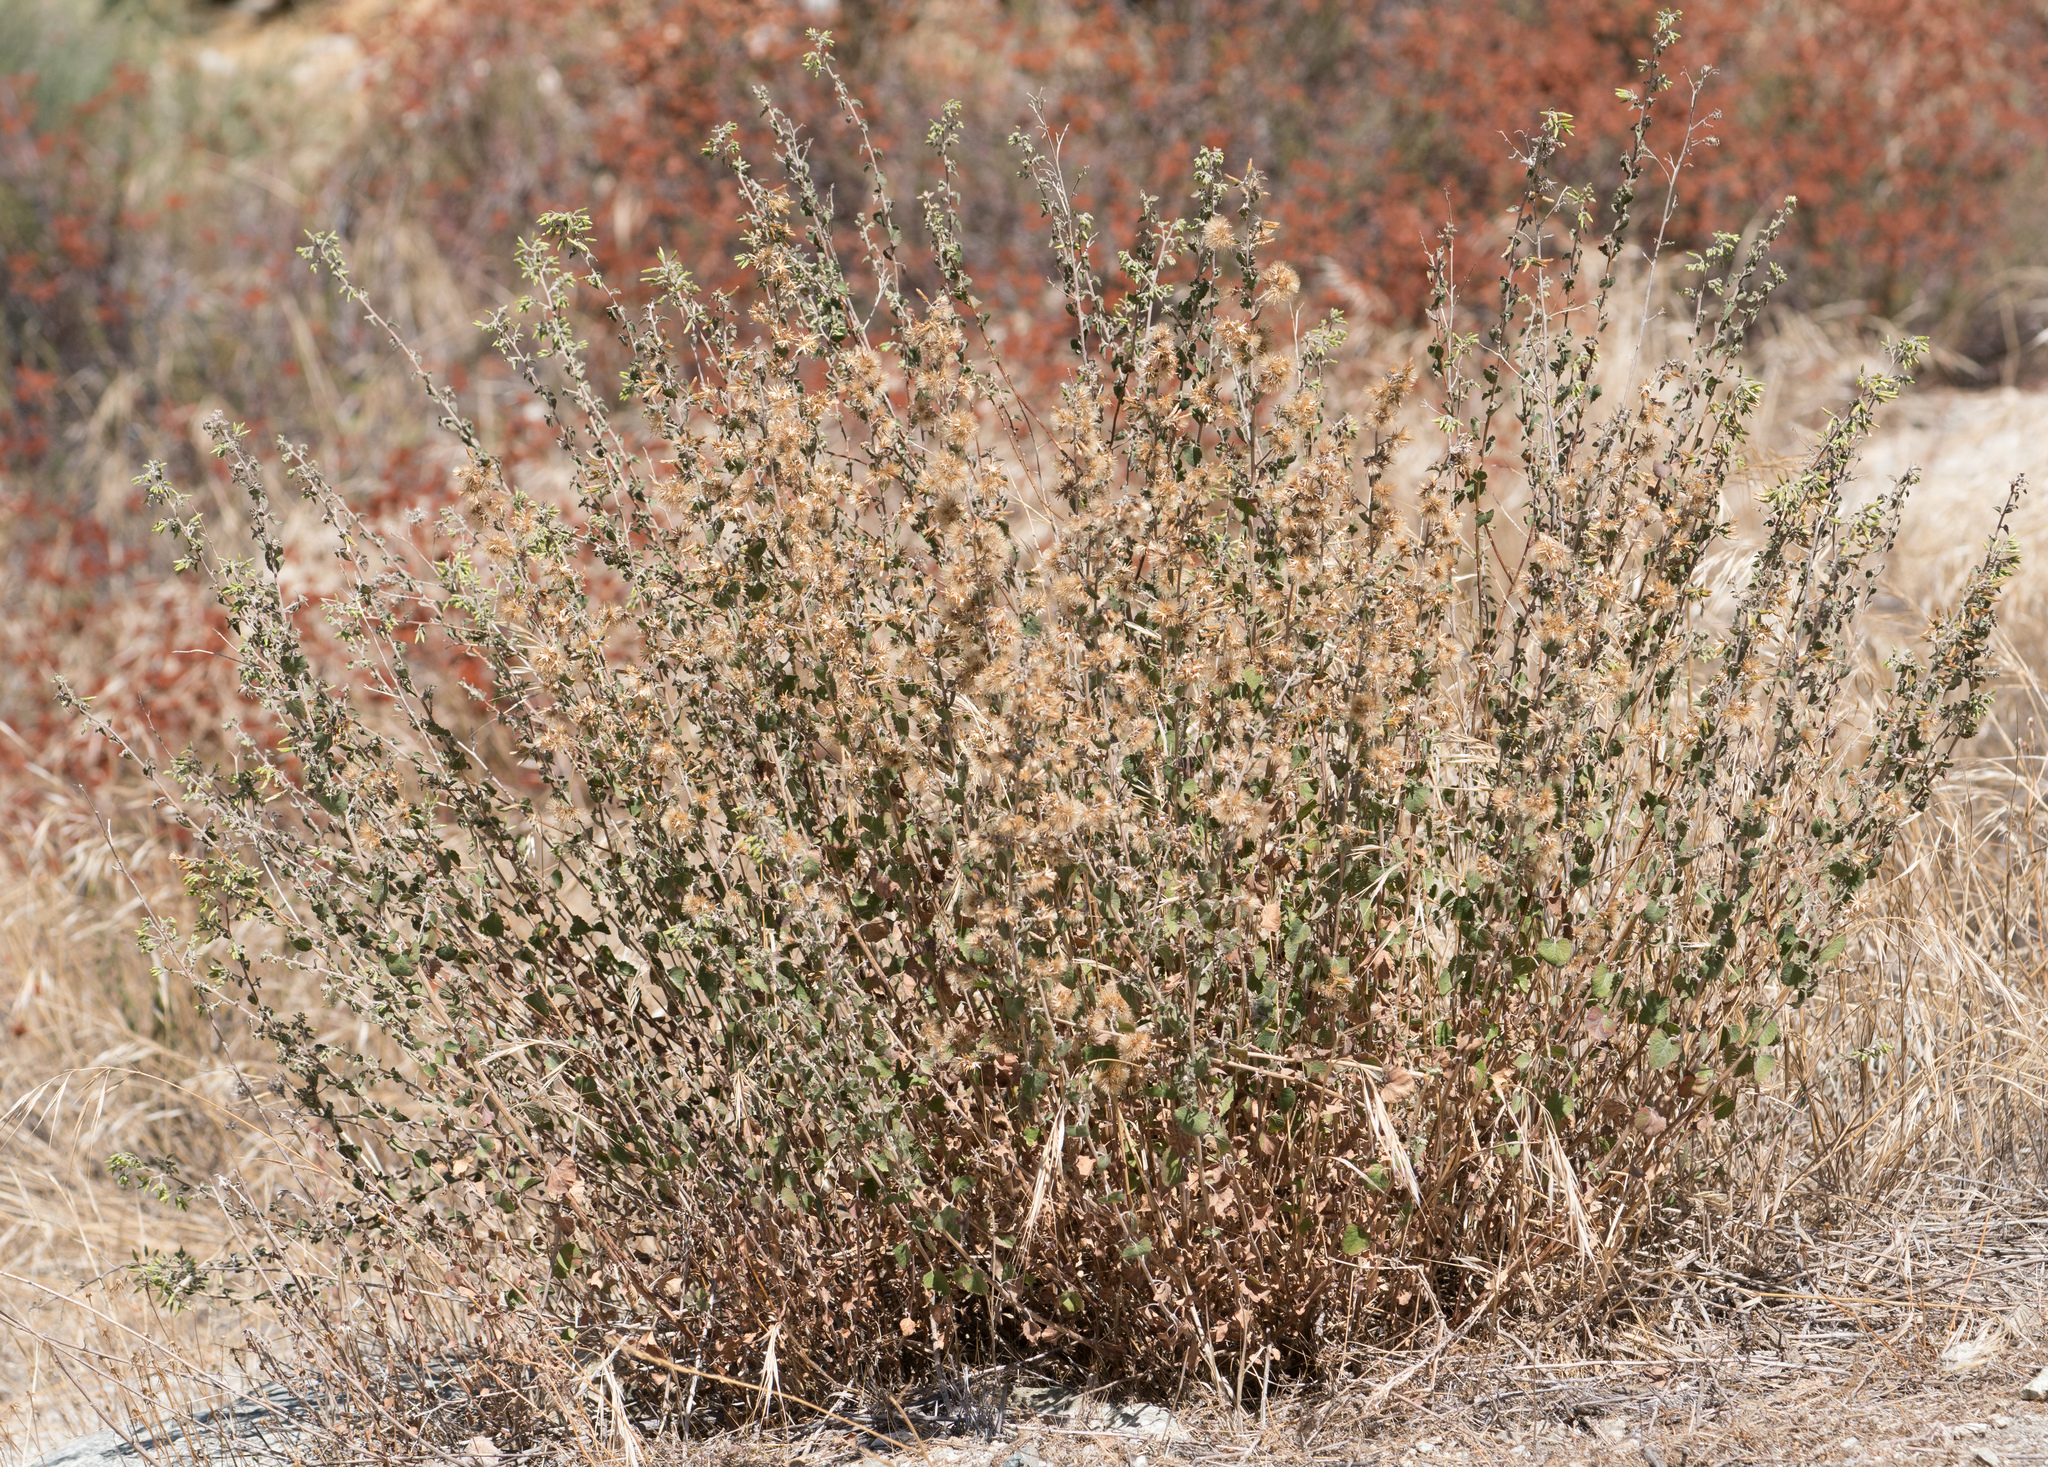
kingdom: Plantae
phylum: Tracheophyta
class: Magnoliopsida
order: Asterales
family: Asteraceae
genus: Brickellia
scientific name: Brickellia californica
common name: California brickellbush
